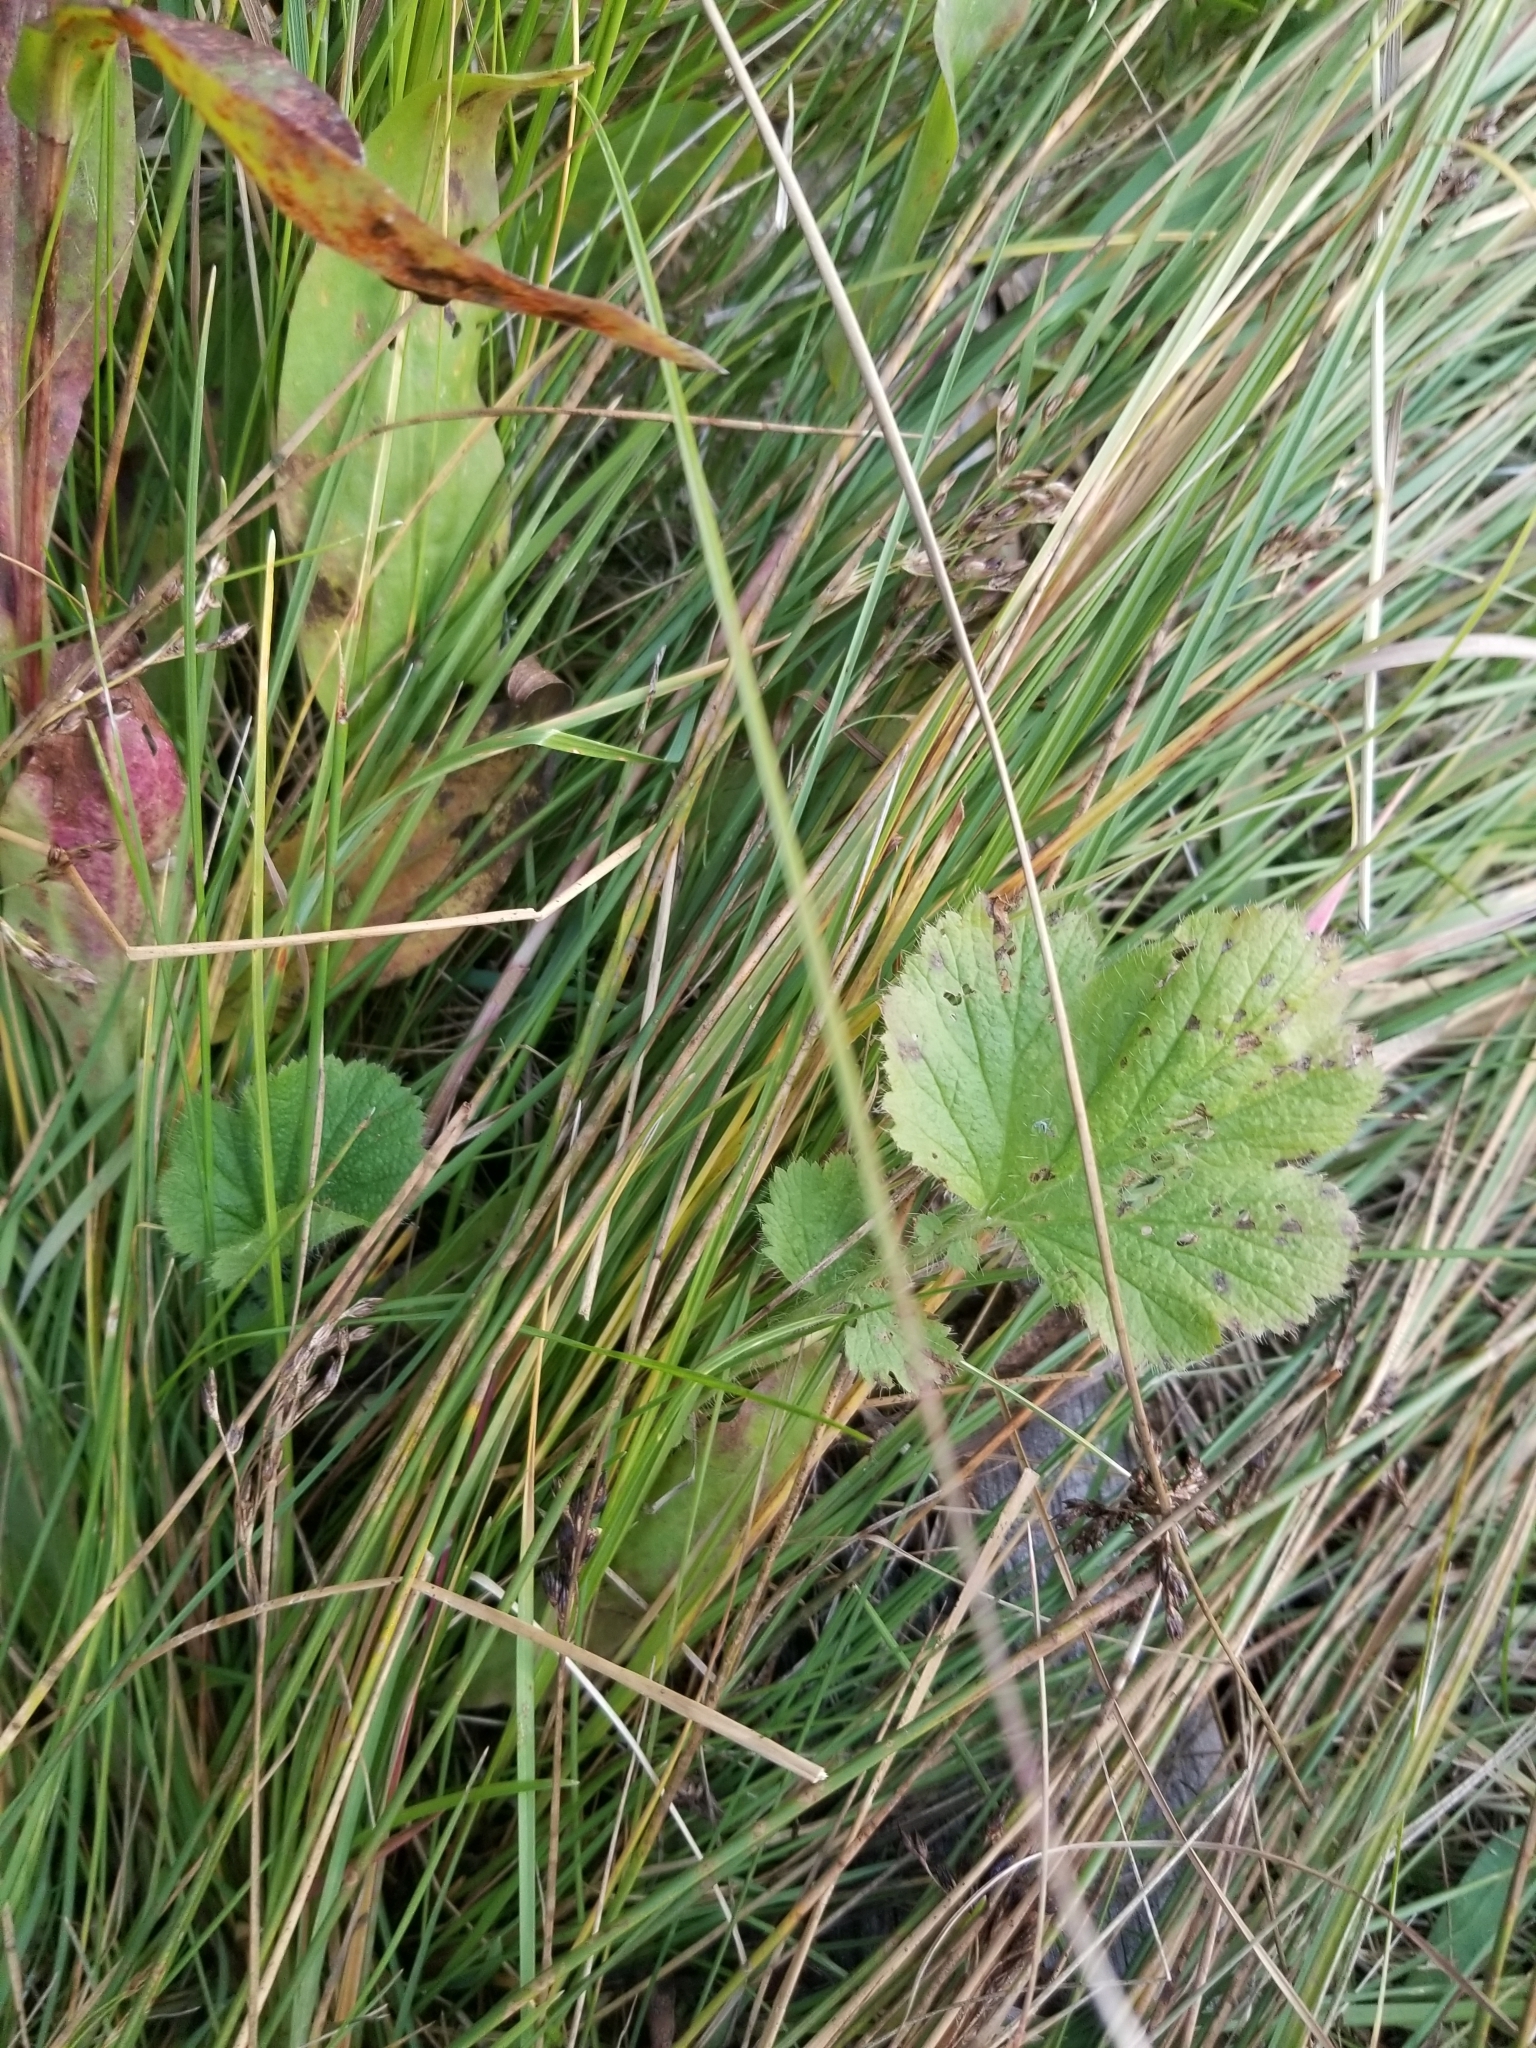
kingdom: Plantae
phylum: Tracheophyta
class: Magnoliopsida
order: Rosales
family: Rosaceae
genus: Geum
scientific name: Geum macrophyllum
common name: Large-leaved avens
